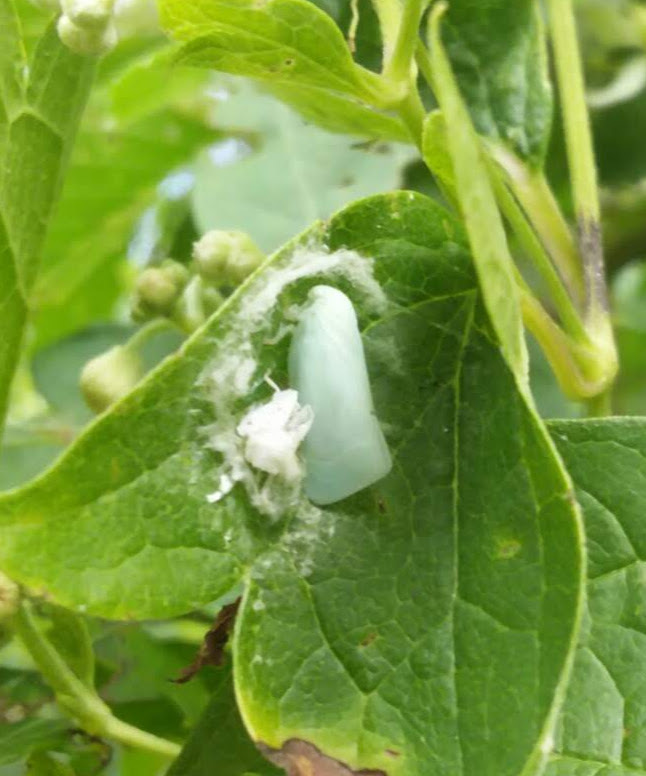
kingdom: Animalia
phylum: Arthropoda
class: Insecta
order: Hemiptera
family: Flatidae
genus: Flatormenis
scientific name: Flatormenis proxima
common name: Northern flatid planthopper
